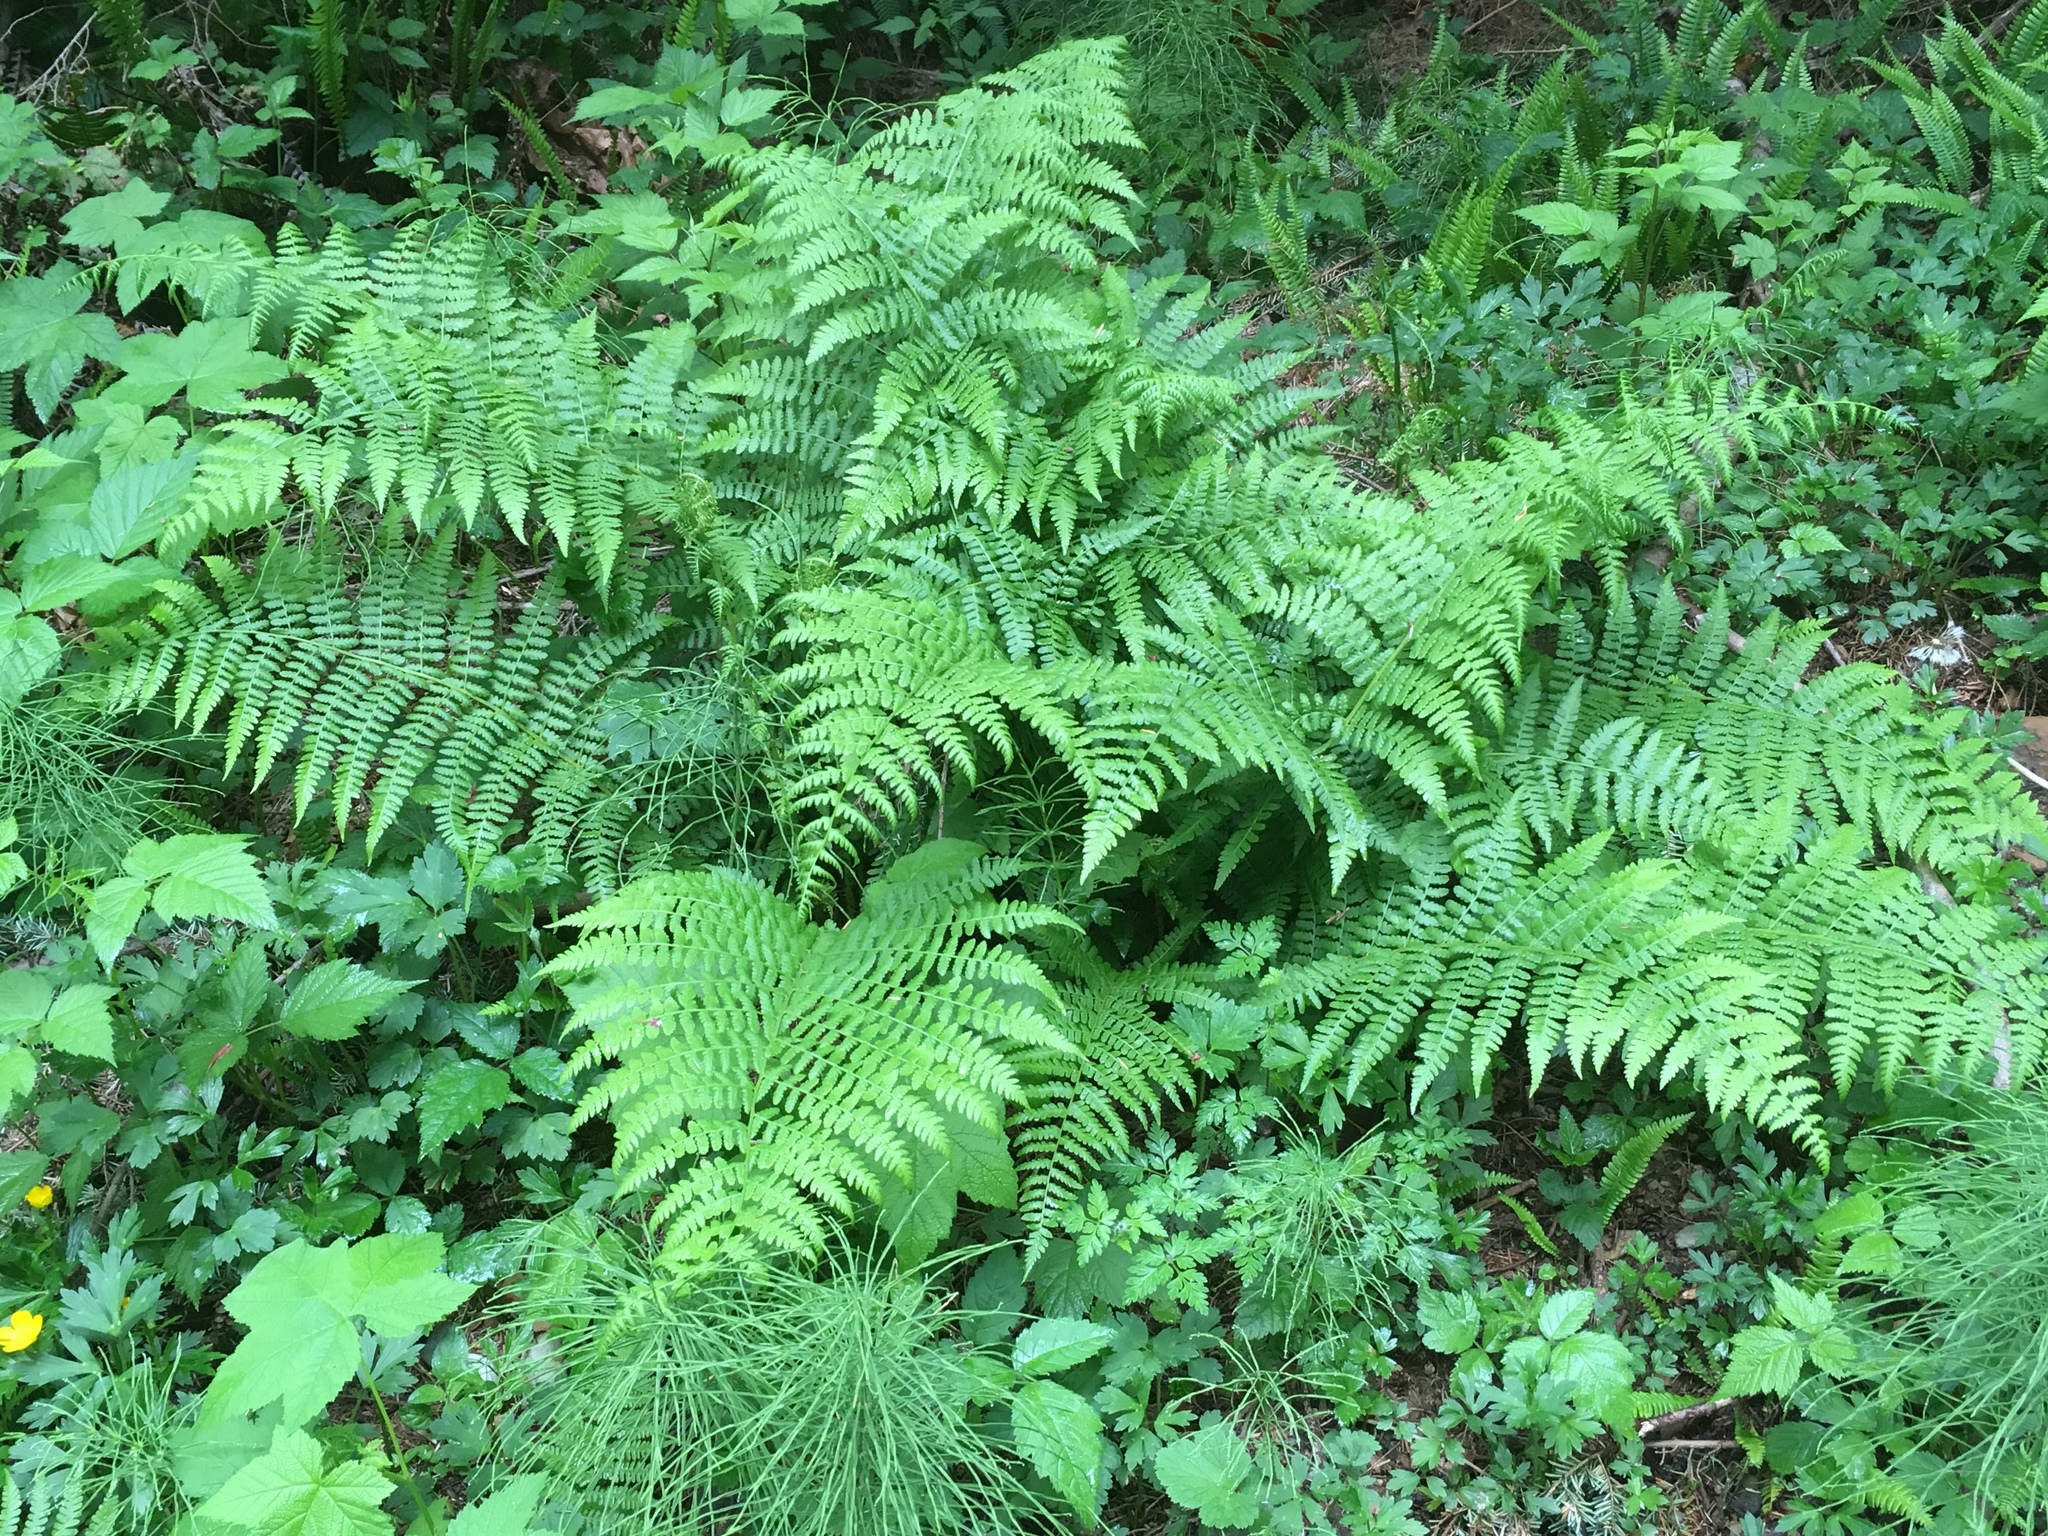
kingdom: Plantae
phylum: Tracheophyta
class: Polypodiopsida
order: Polypodiales
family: Athyriaceae
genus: Athyrium
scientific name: Athyrium filix-femina
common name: Lady fern
